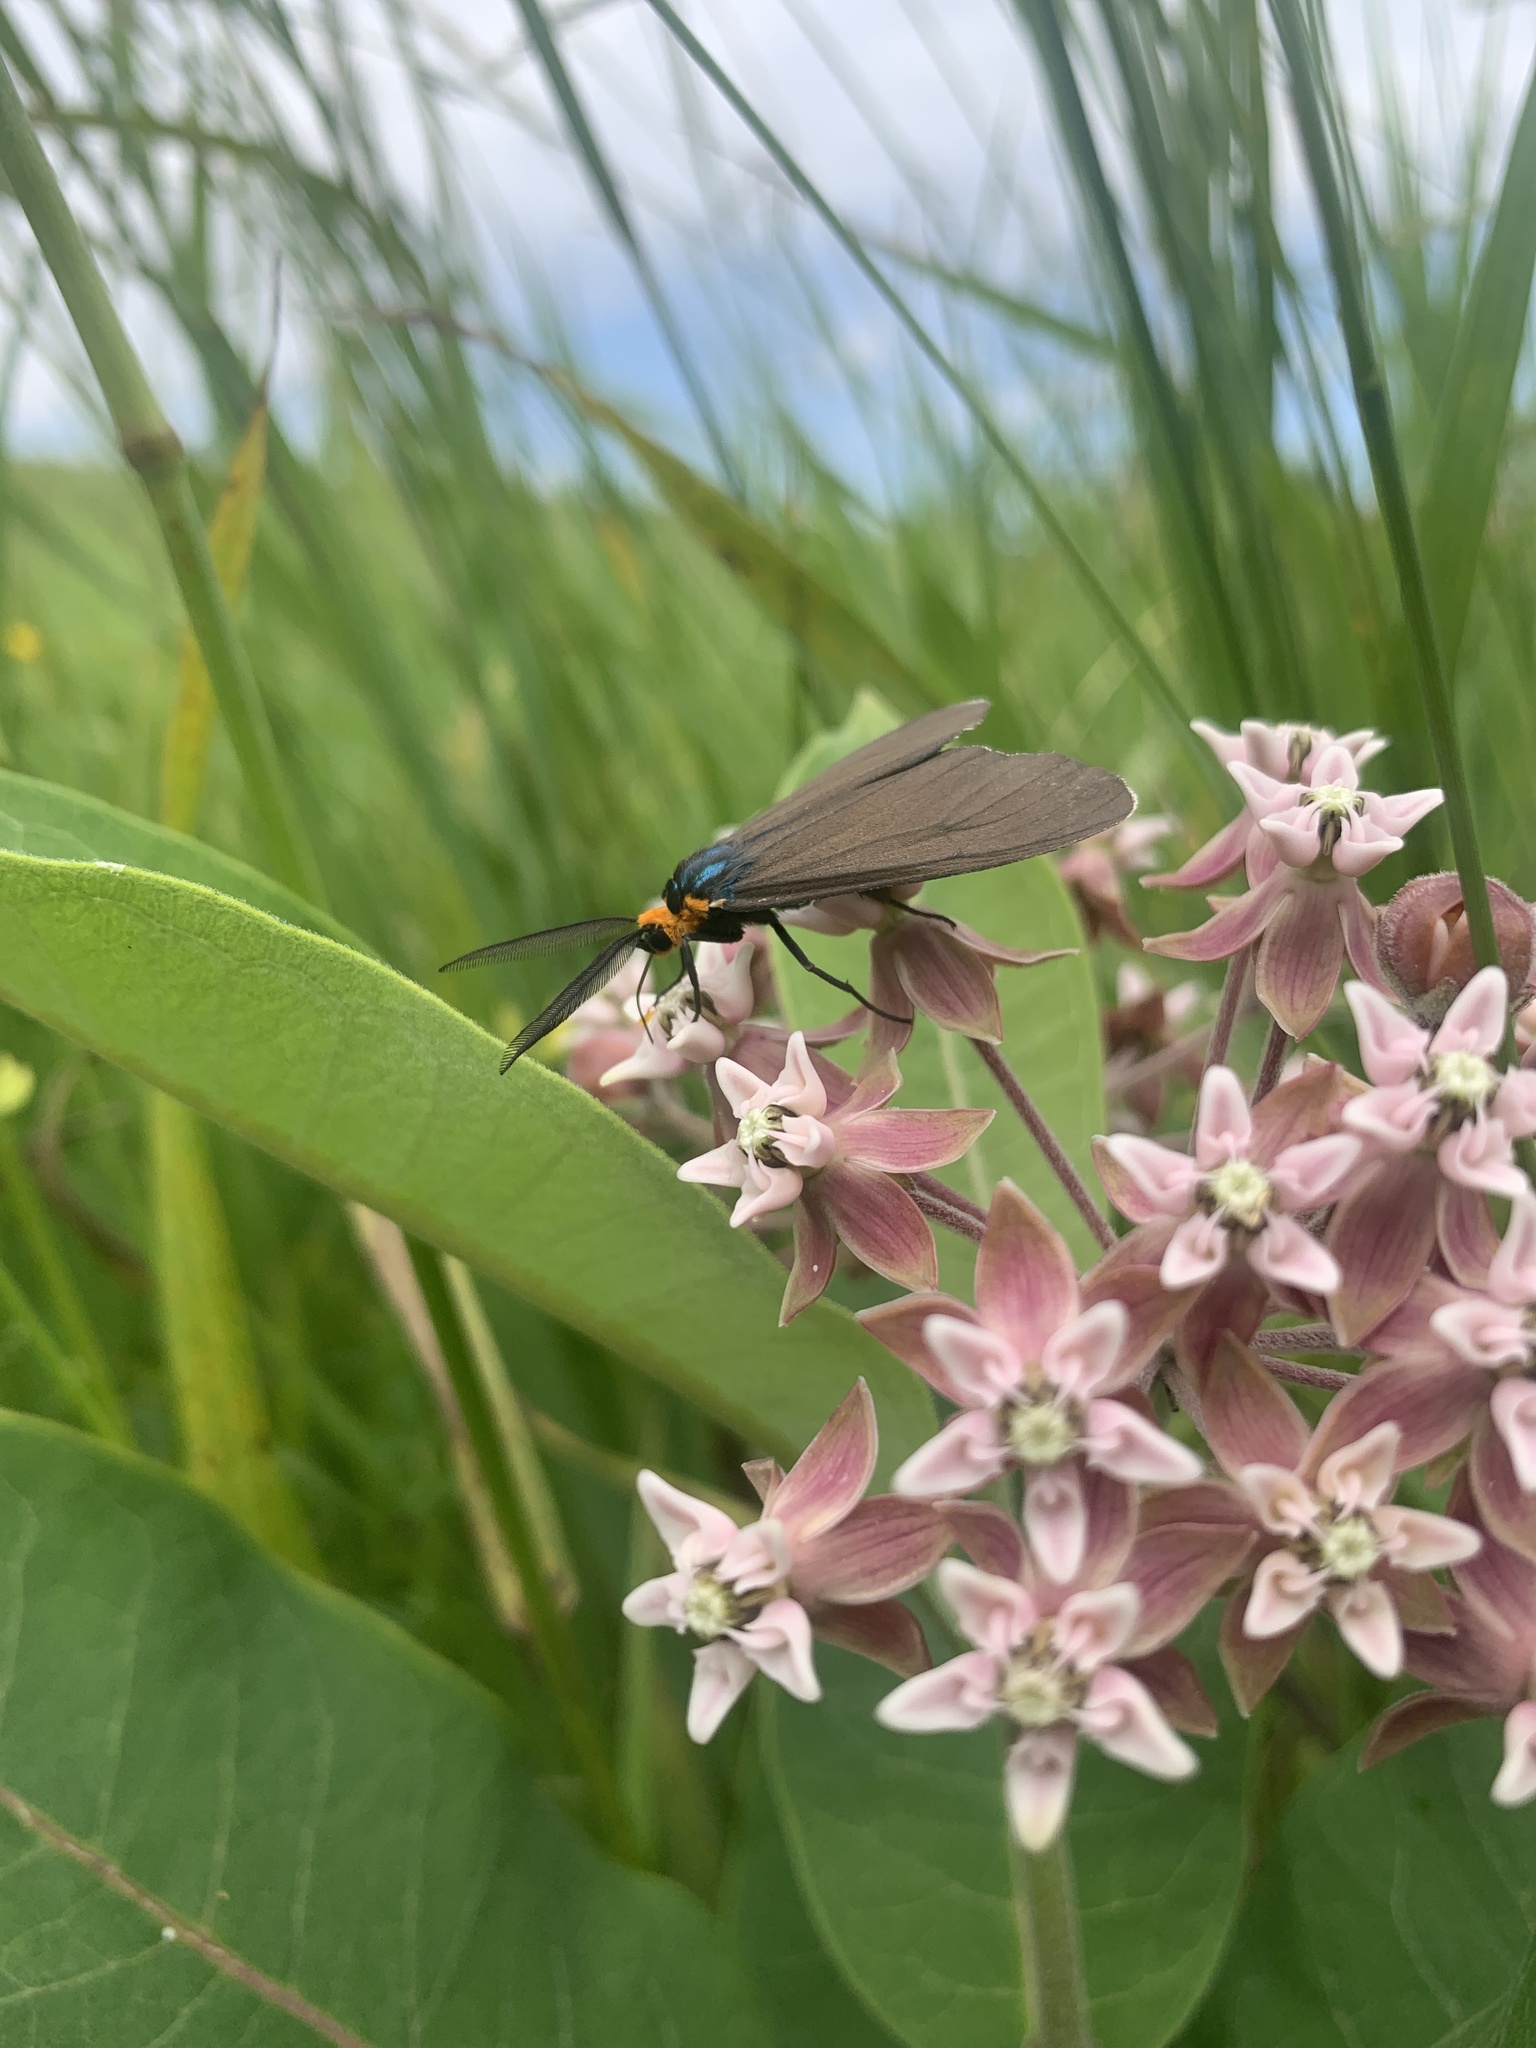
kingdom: Animalia
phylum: Arthropoda
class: Insecta
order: Lepidoptera
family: Erebidae
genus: Ctenucha
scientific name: Ctenucha virginica
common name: Virginia ctenucha moth
